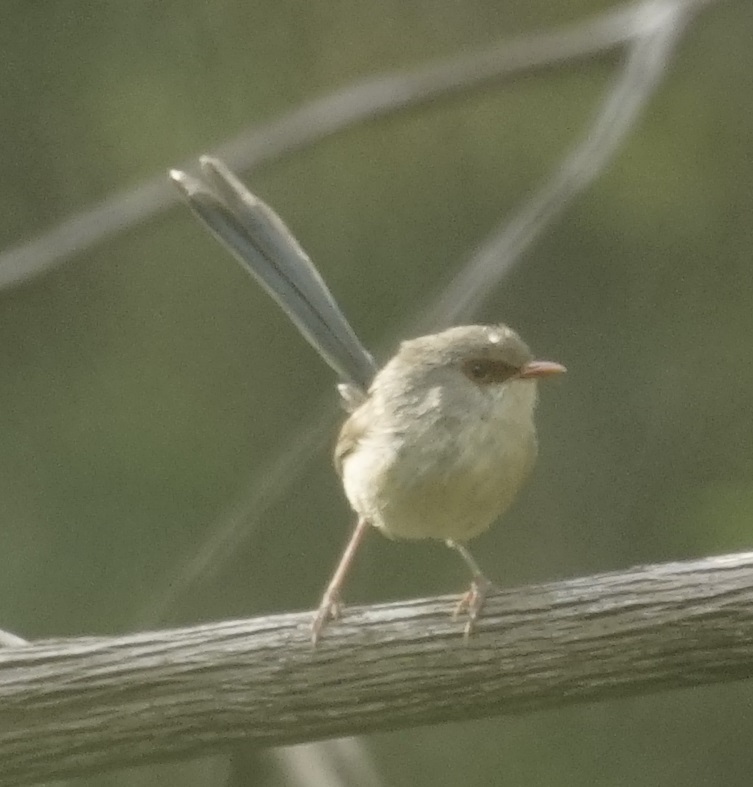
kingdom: Animalia
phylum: Chordata
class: Aves
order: Passeriformes
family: Maluridae
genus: Malurus
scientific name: Malurus lamberti
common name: Variegated fairywren
